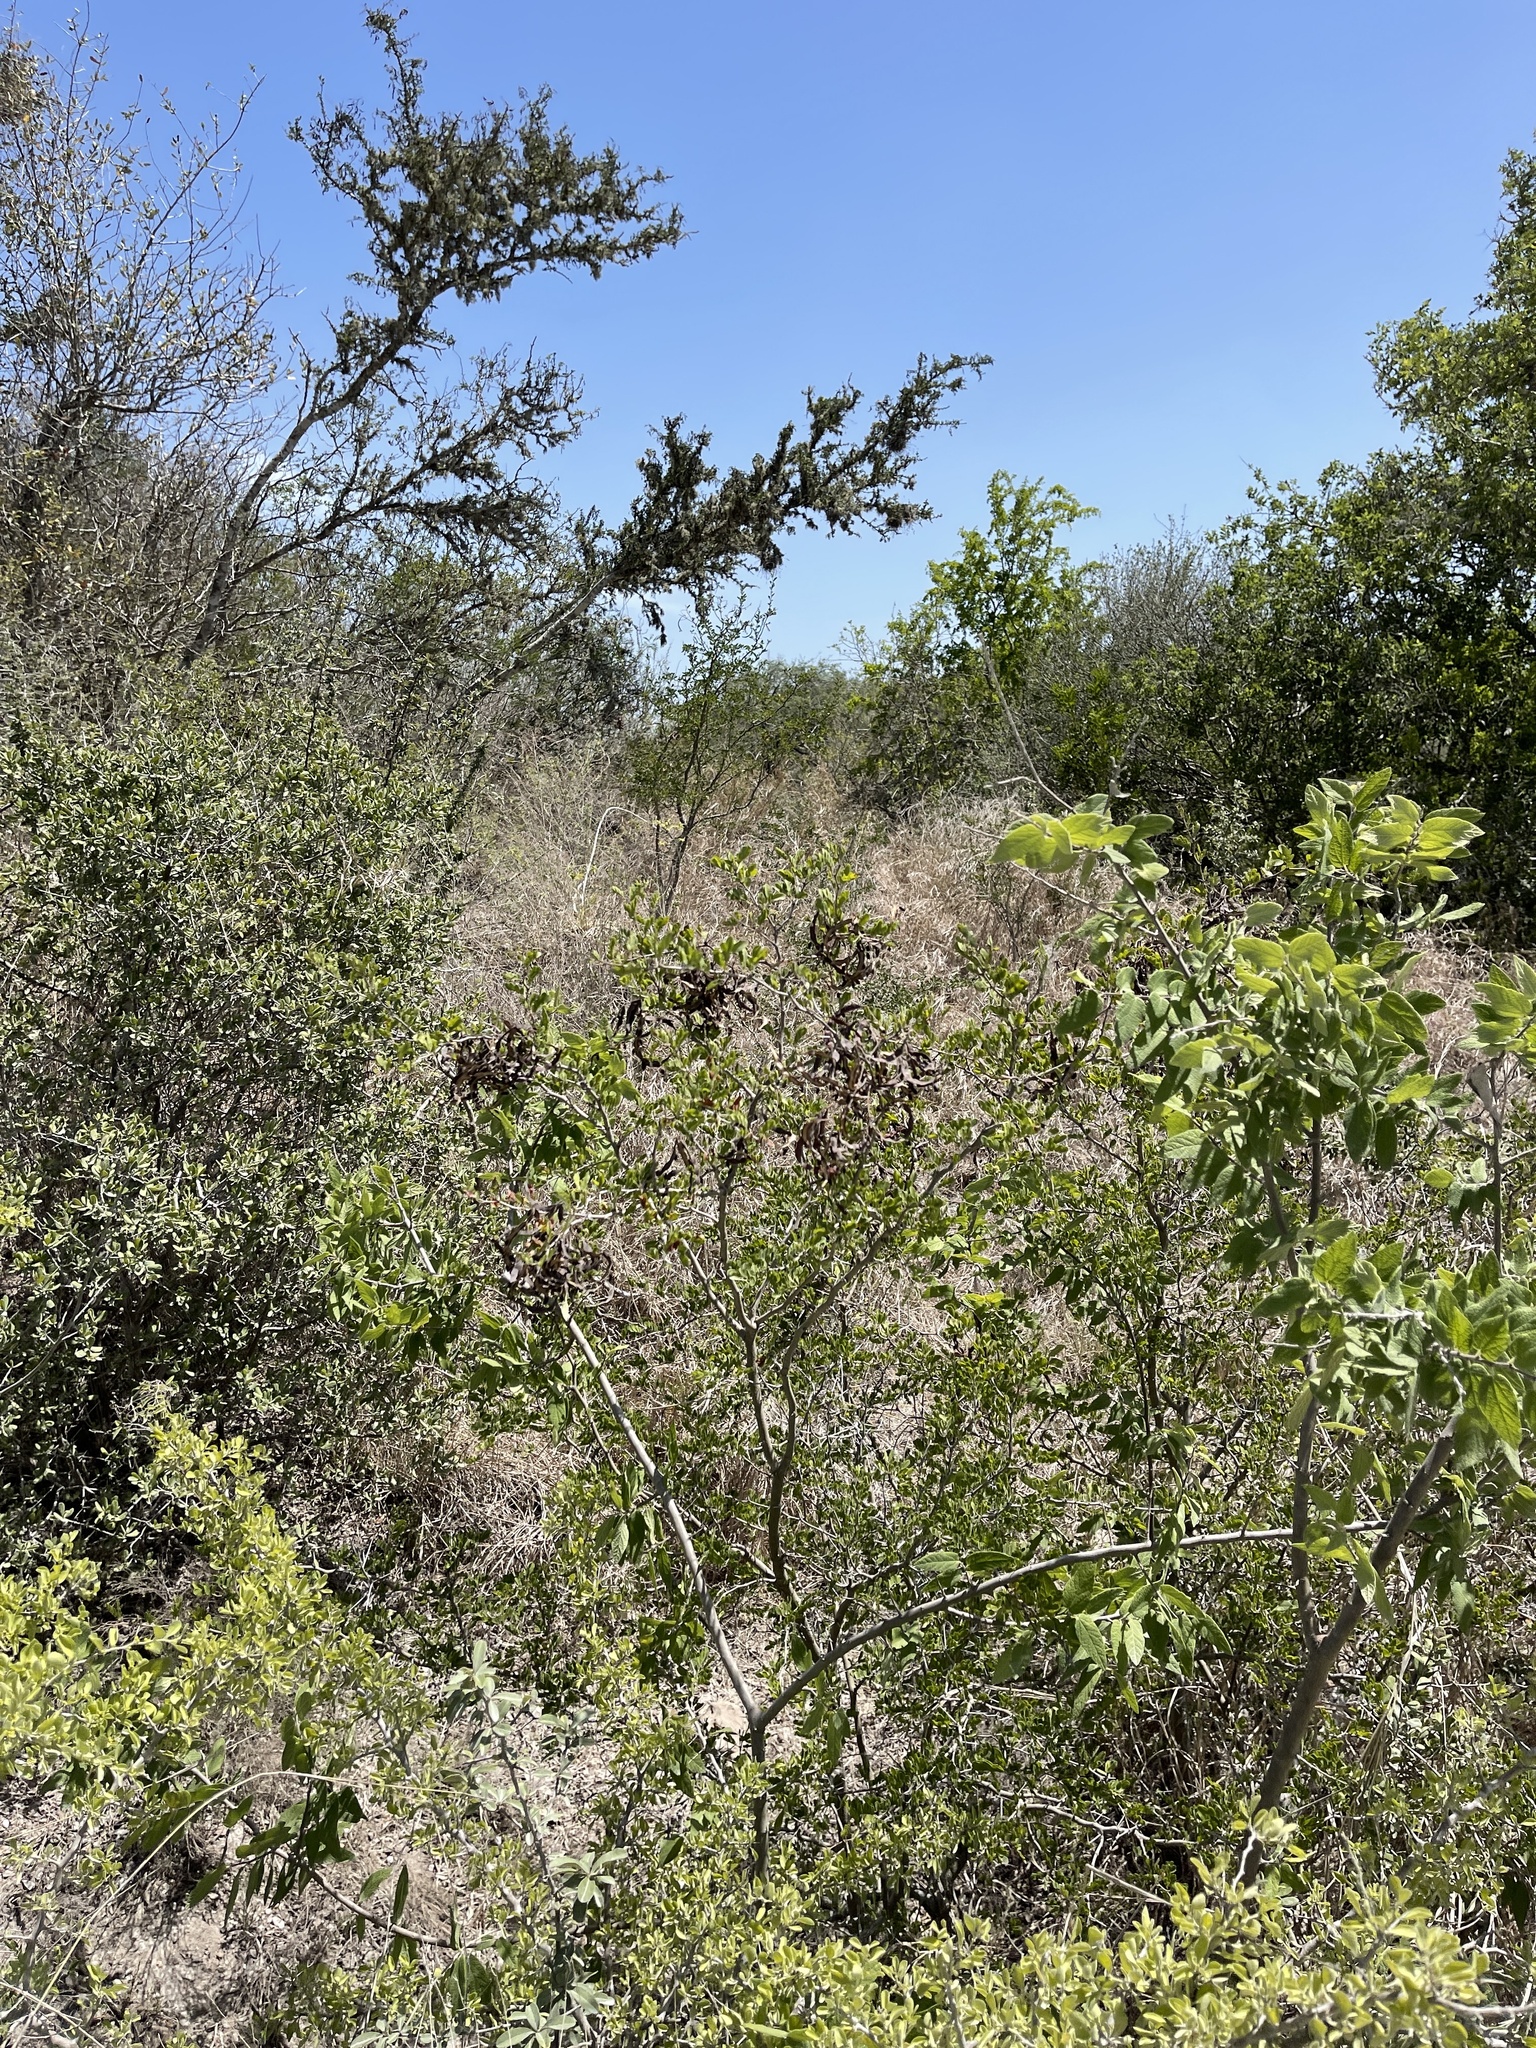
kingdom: Plantae
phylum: Tracheophyta
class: Magnoliopsida
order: Fabales
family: Fabaceae
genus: Vachellia
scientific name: Vachellia rigidula
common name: Blackbrush
